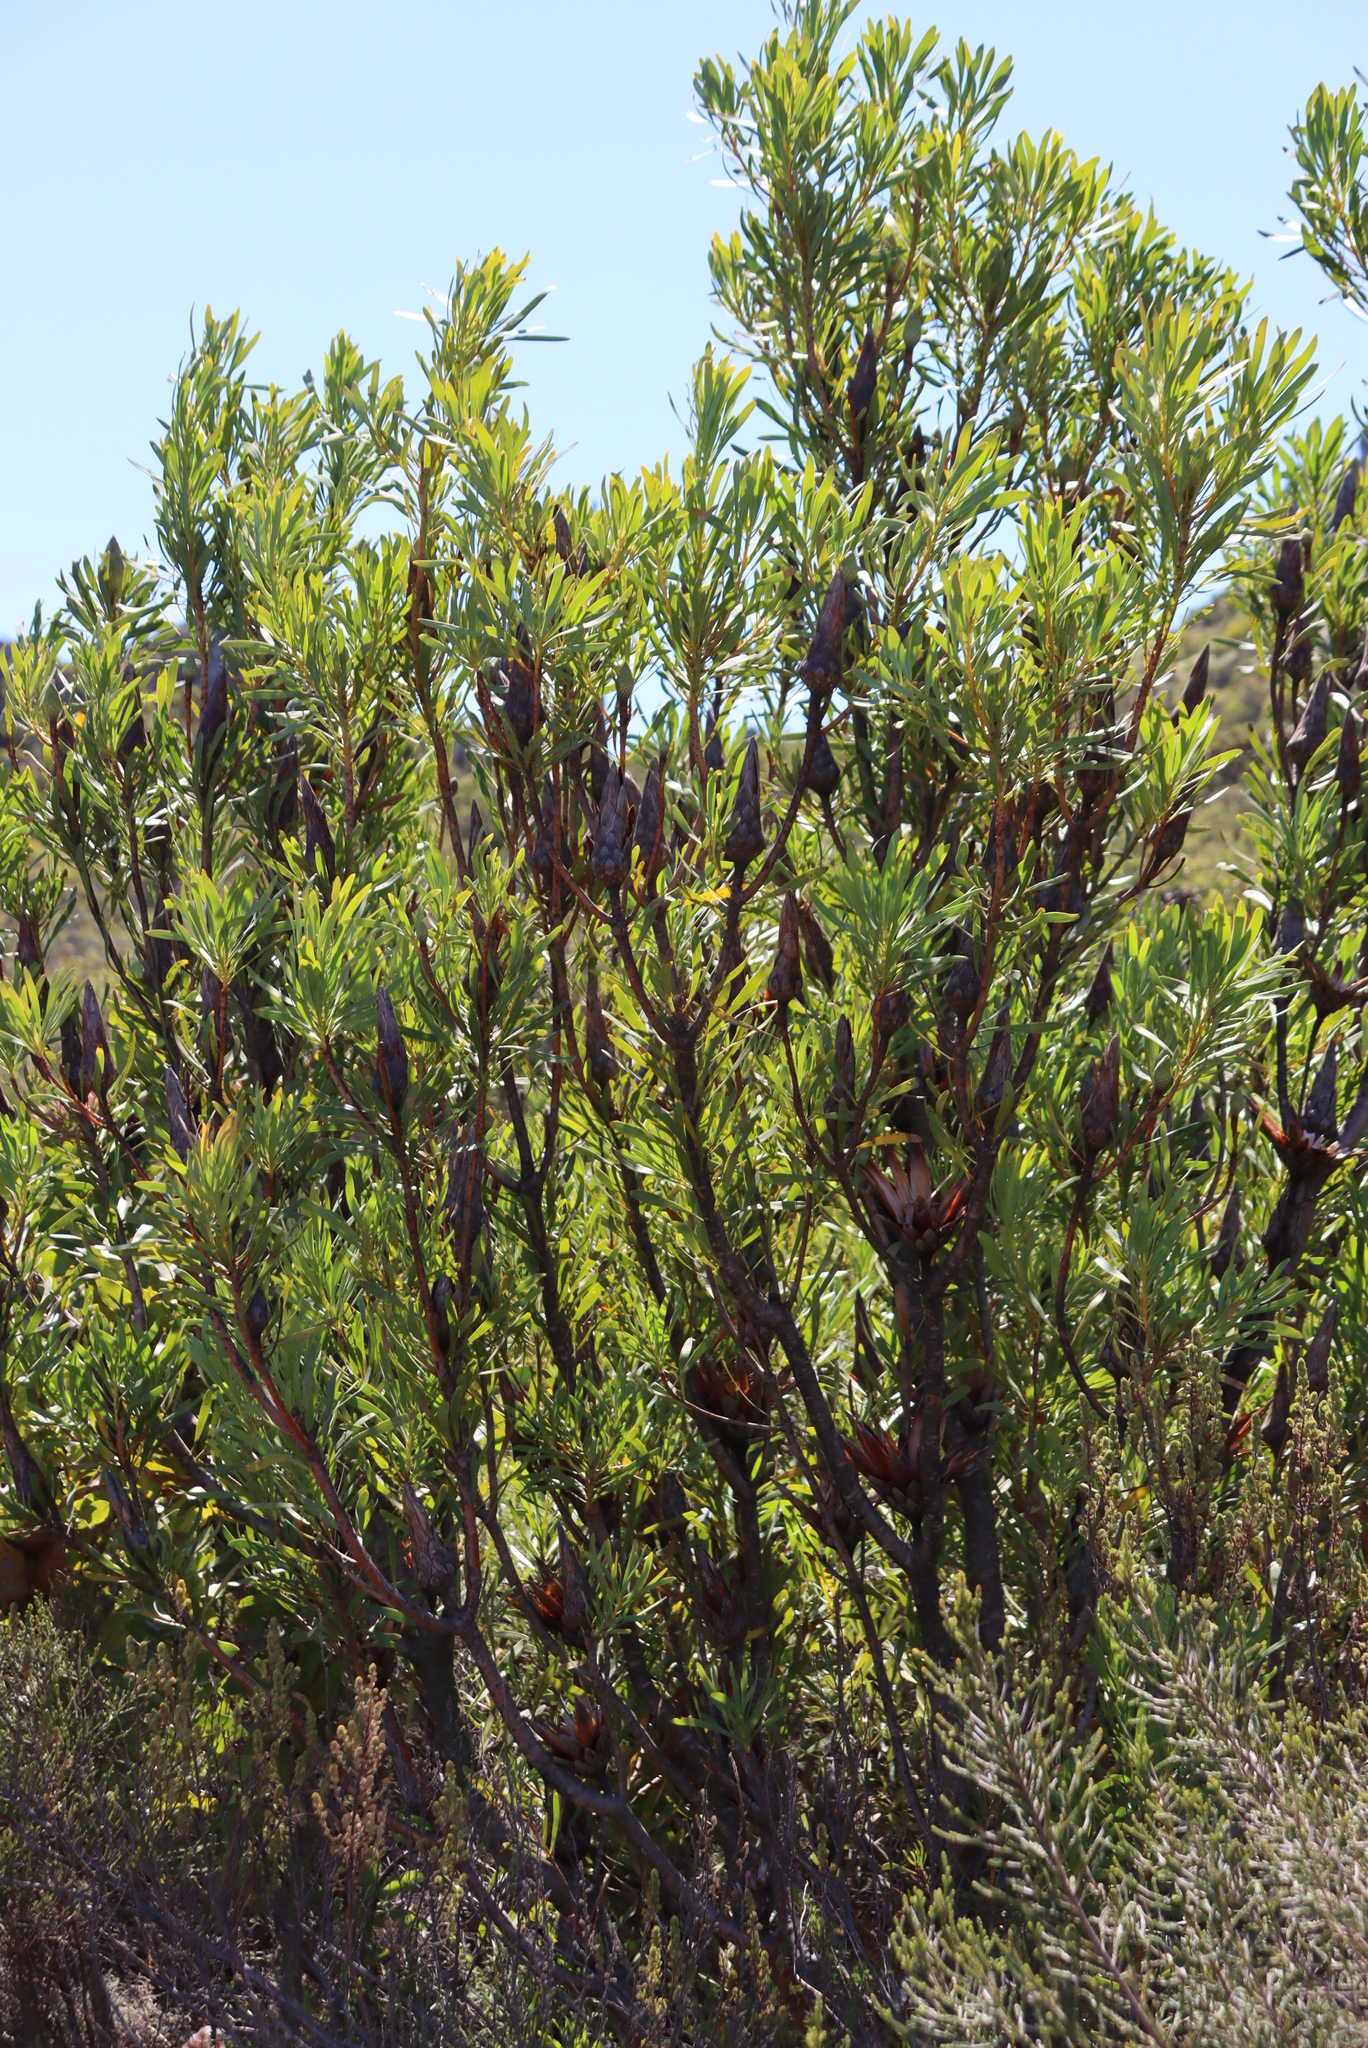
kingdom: Plantae
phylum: Tracheophyta
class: Magnoliopsida
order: Proteales
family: Proteaceae
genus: Protea
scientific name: Protea repens
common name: Sugarbush
